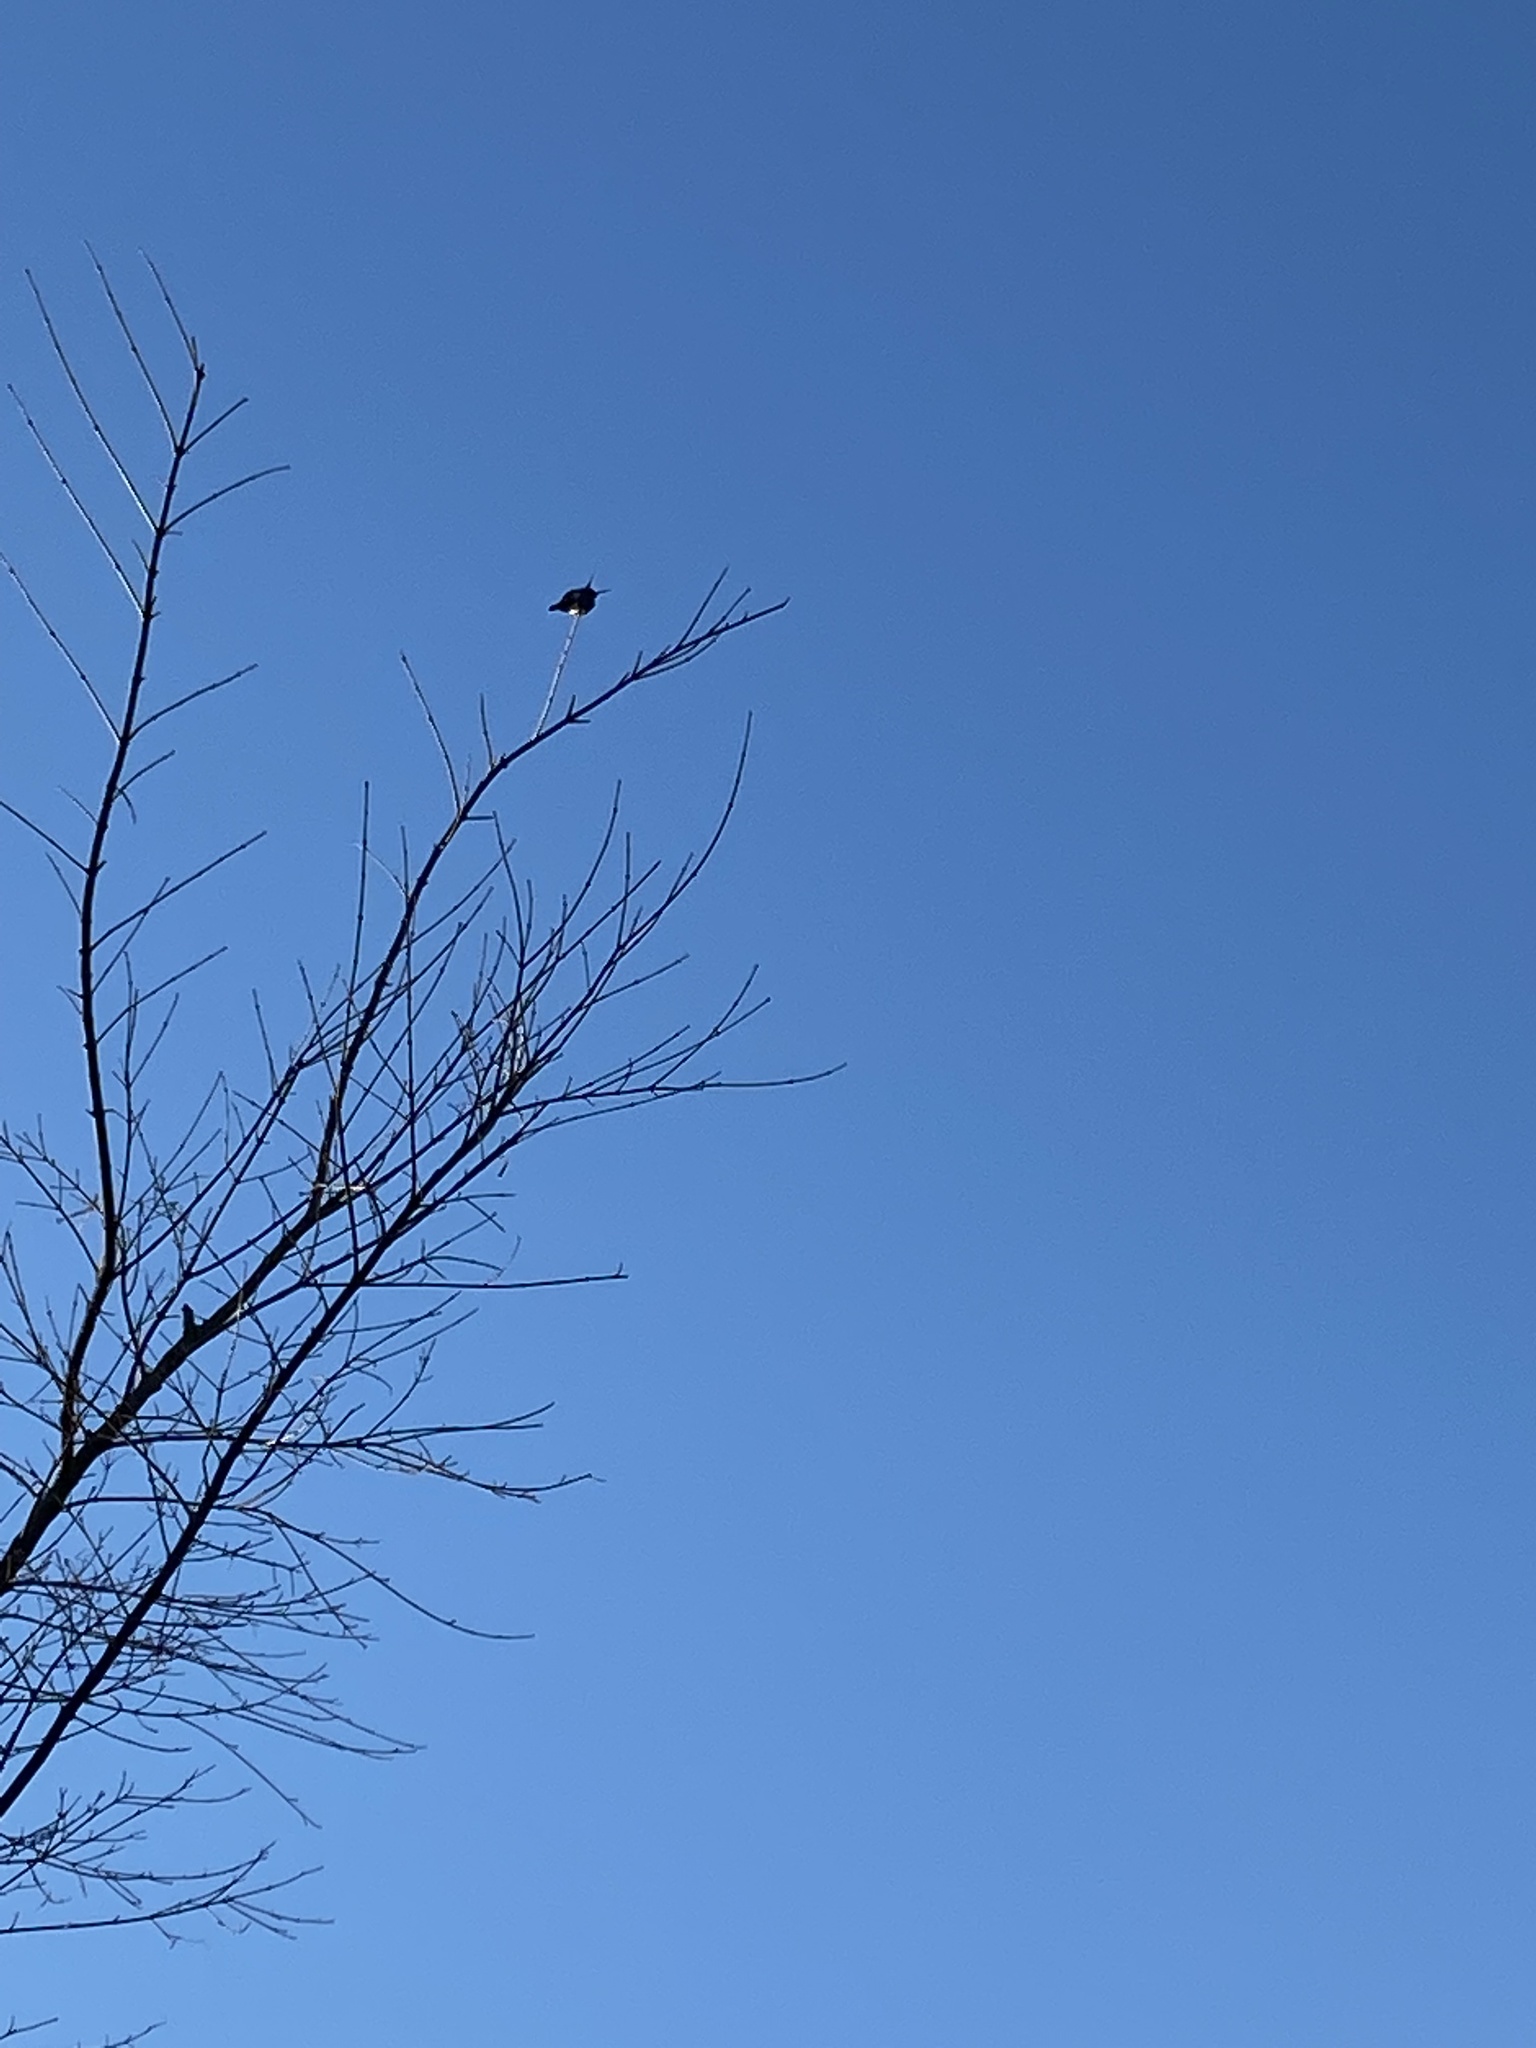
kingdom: Animalia
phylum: Chordata
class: Aves
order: Apodiformes
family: Trochilidae
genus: Calypte
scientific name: Calypte anna
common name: Anna's hummingbird
